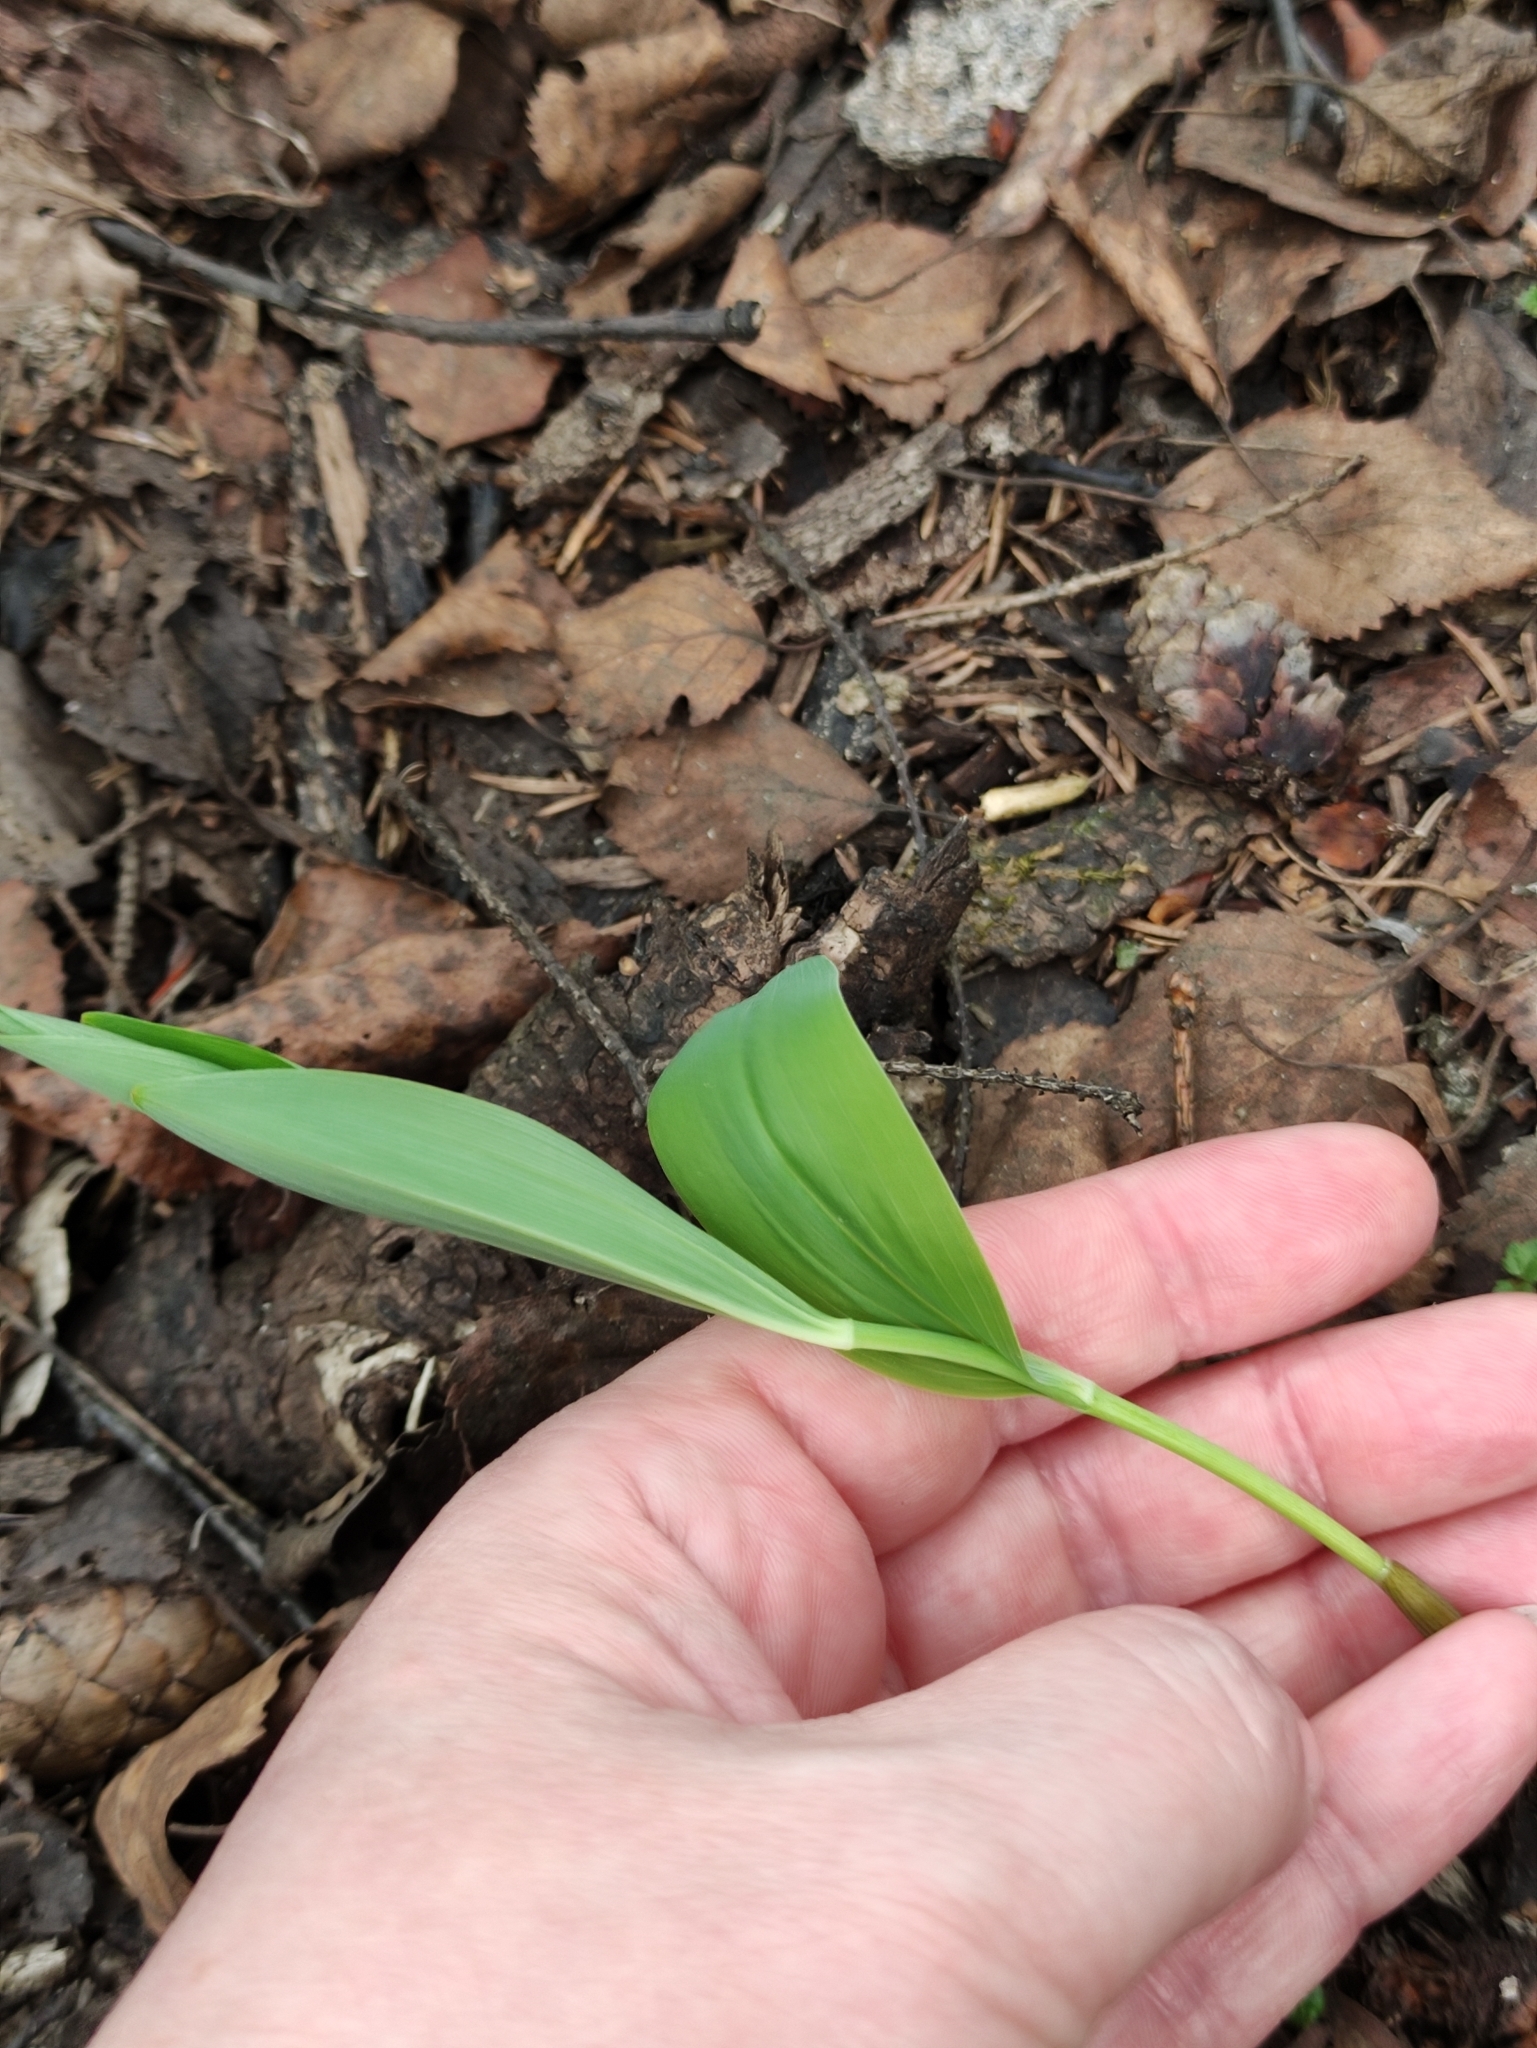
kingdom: Plantae
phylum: Tracheophyta
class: Liliopsida
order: Asparagales
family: Asparagaceae
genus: Polygonatum
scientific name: Polygonatum multiflorum
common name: Solomon's-seal
